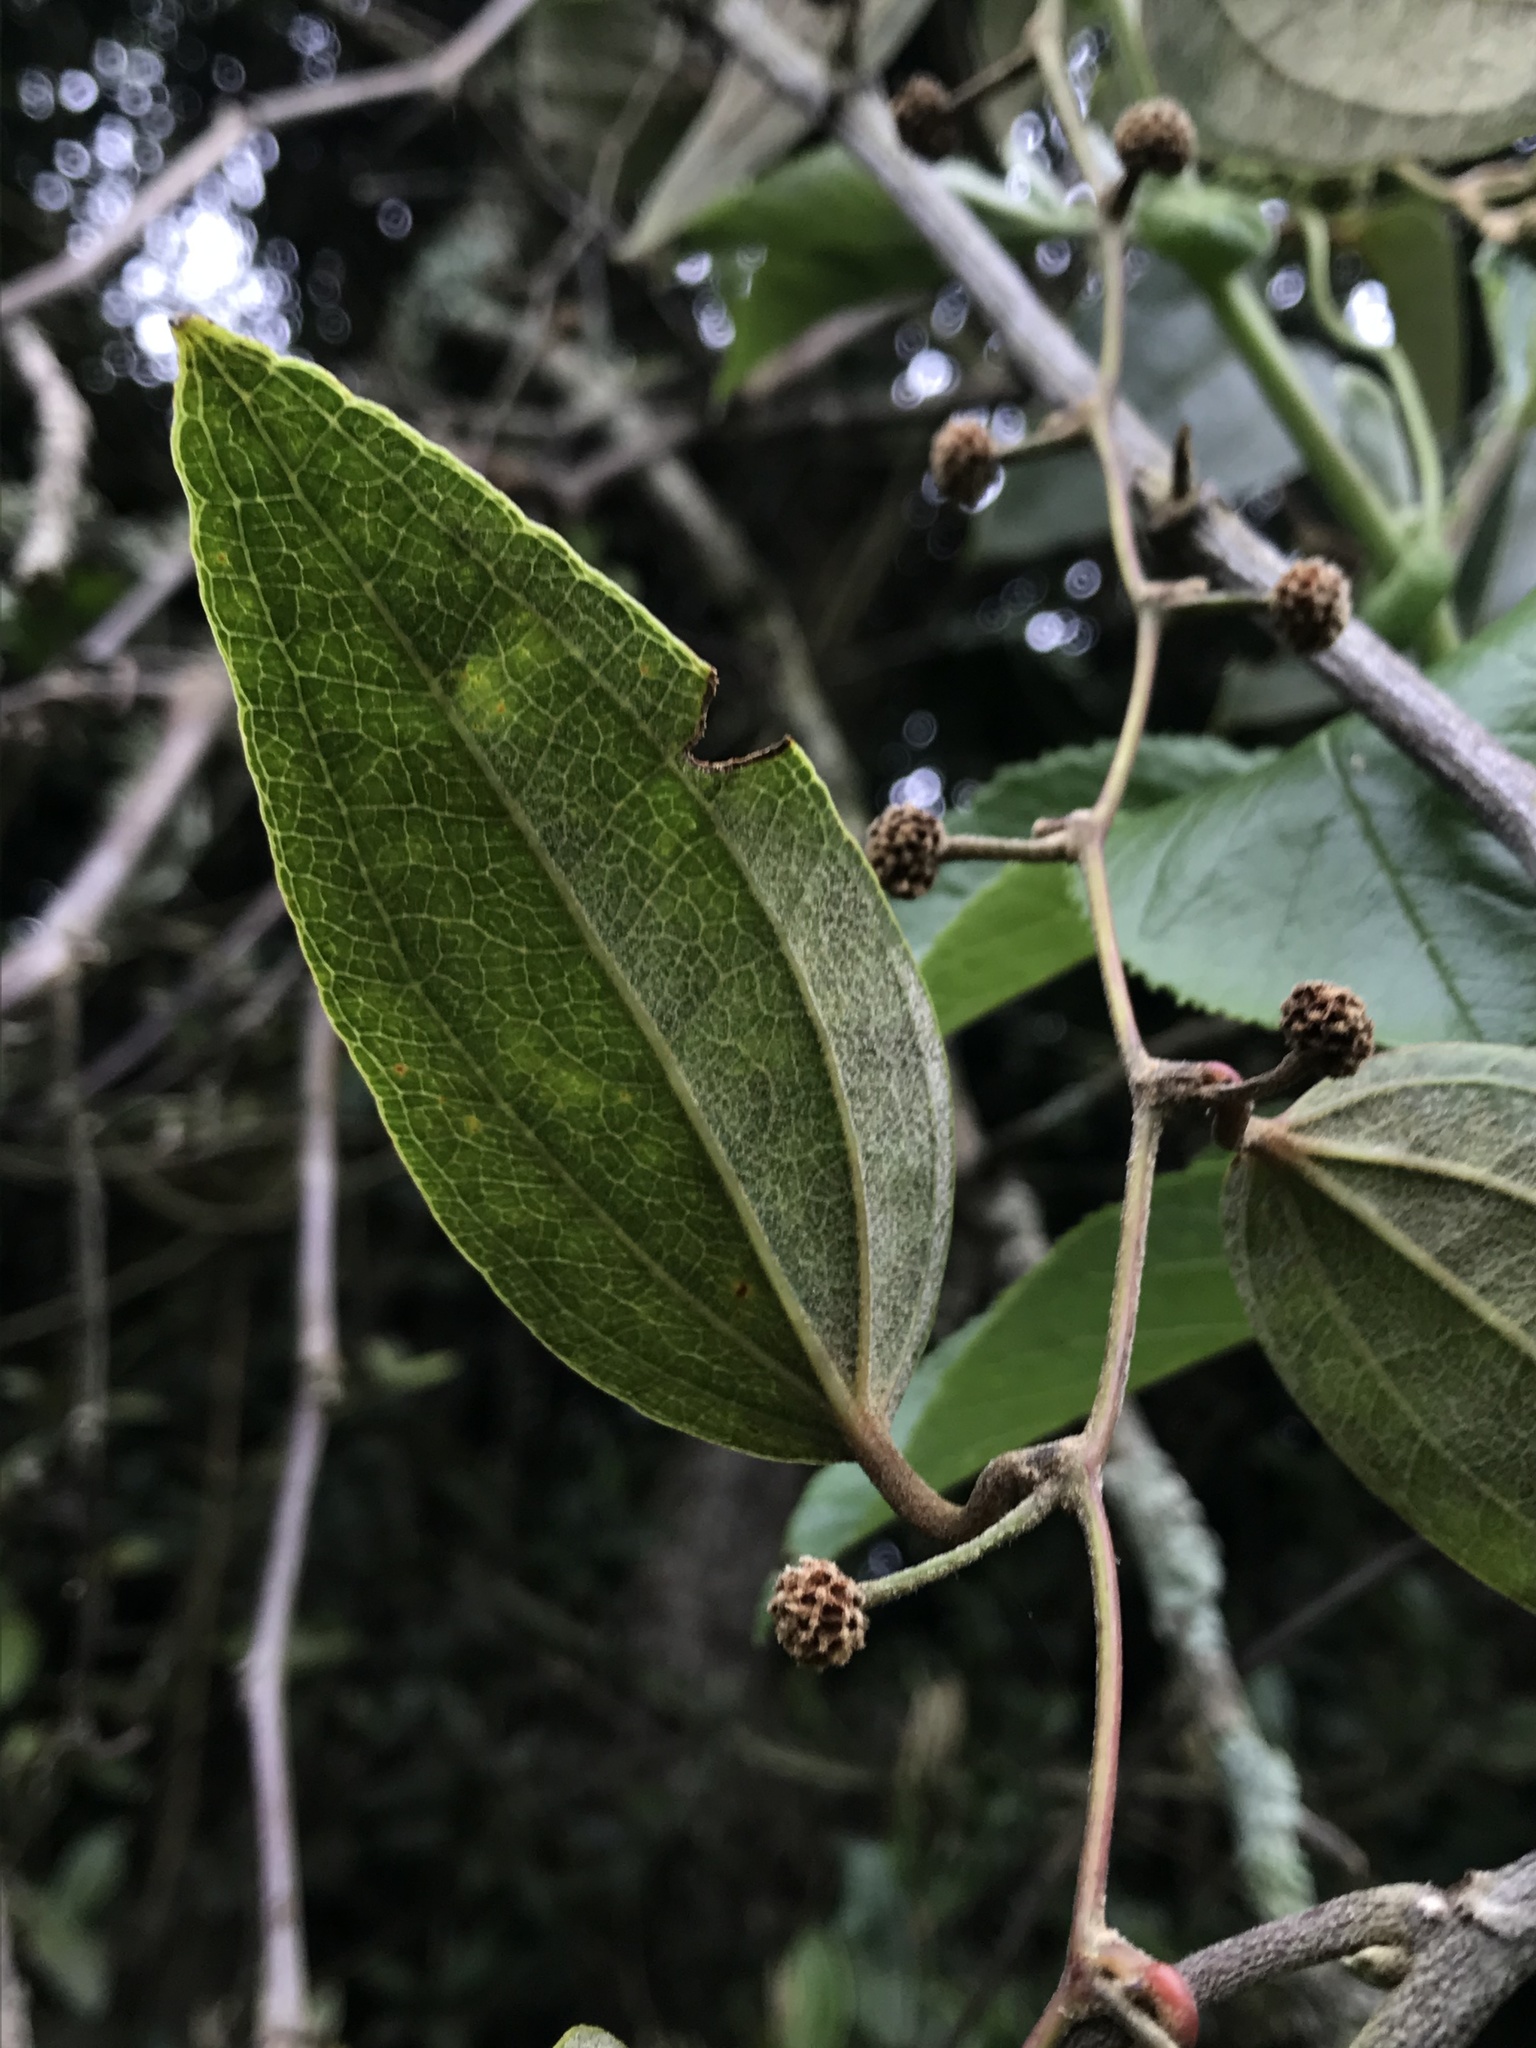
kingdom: Plantae
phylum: Tracheophyta
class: Liliopsida
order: Liliales
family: Smilacaceae
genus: Smilax
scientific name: Smilax domingensis
